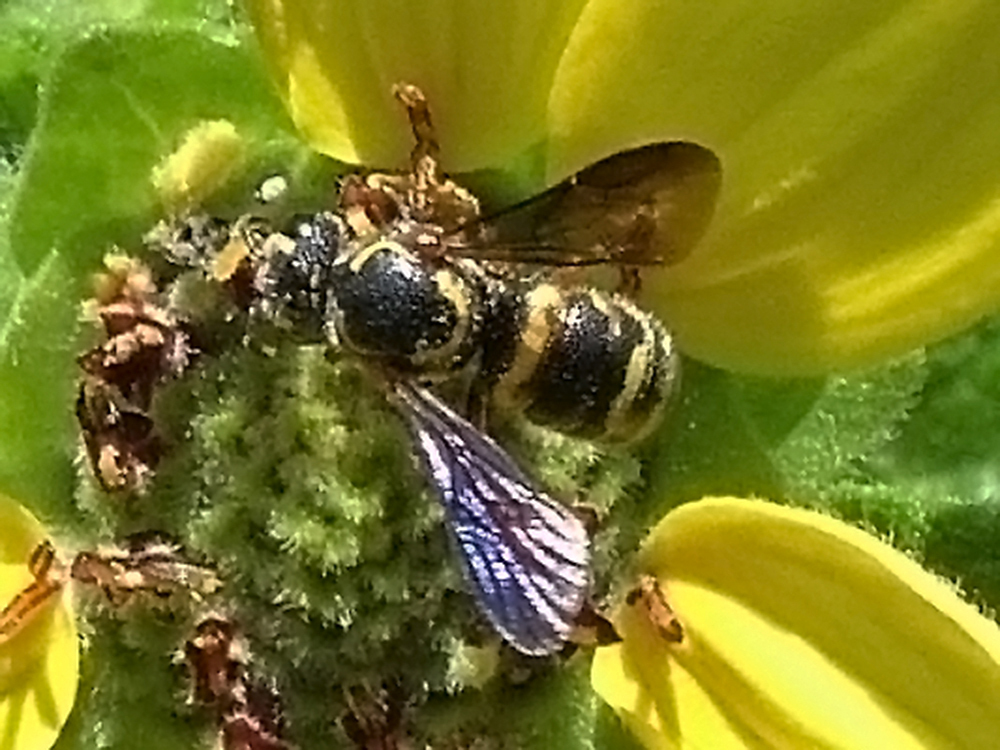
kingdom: Animalia
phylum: Arthropoda
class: Insecta
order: Hymenoptera
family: Megachilidae
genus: Stelis
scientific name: Stelis louisae
